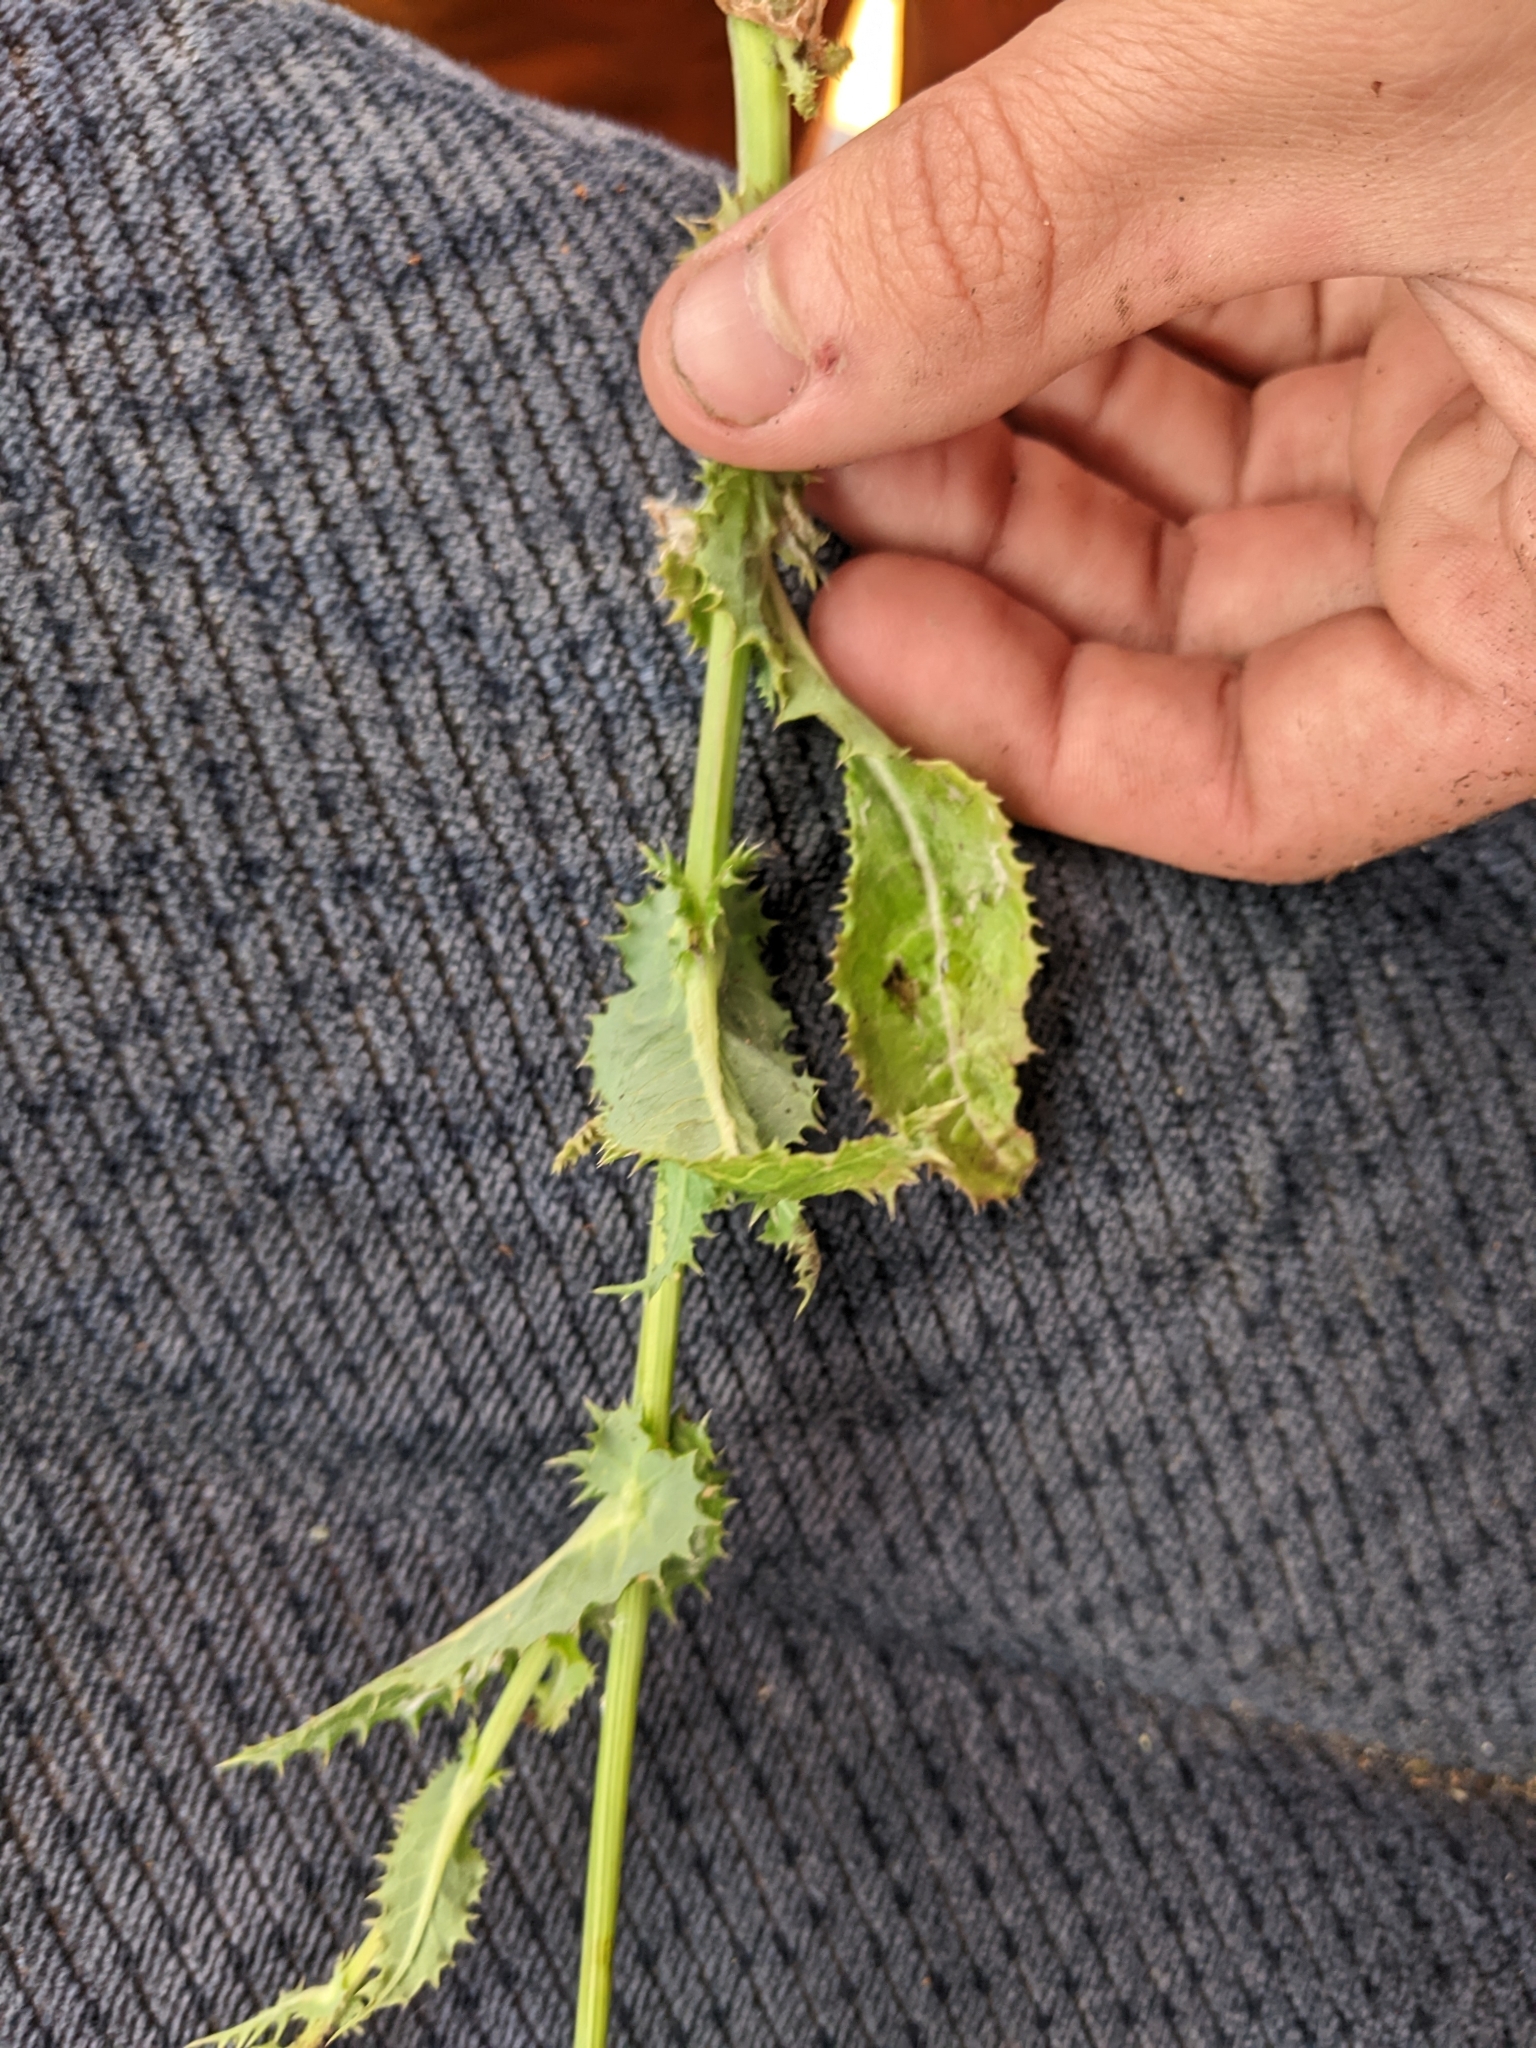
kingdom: Plantae
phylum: Tracheophyta
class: Magnoliopsida
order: Asterales
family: Asteraceae
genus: Sonchus
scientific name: Sonchus asper
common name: Prickly sow-thistle
